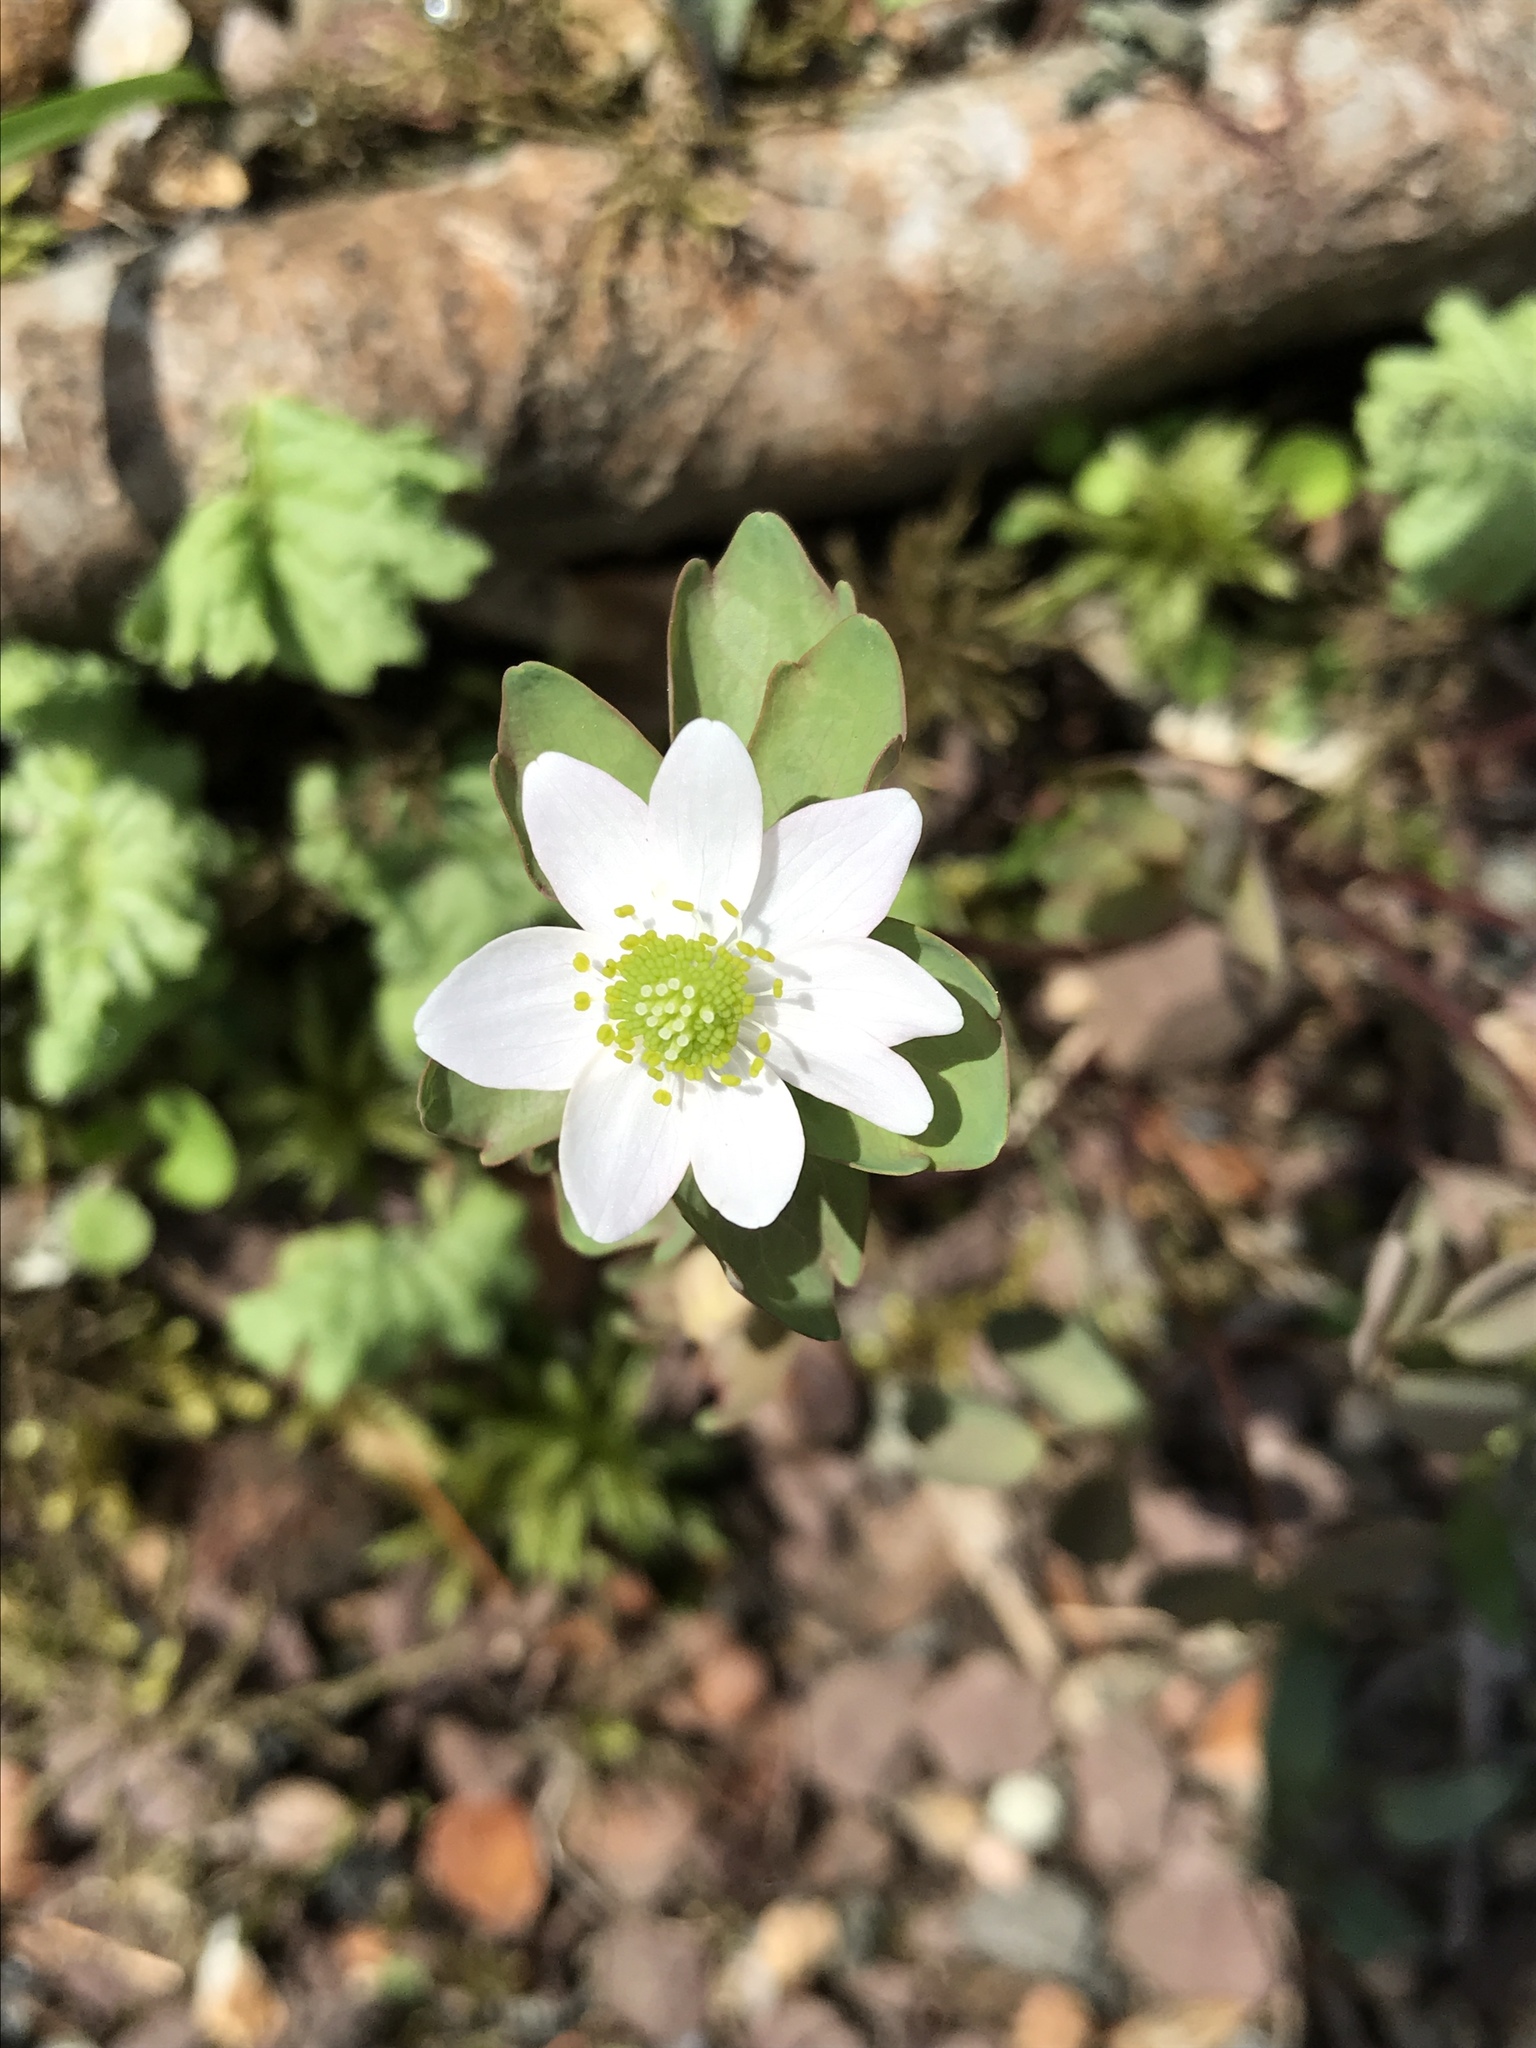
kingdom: Plantae
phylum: Tracheophyta
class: Magnoliopsida
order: Ranunculales
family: Ranunculaceae
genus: Thalictrum
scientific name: Thalictrum thalictroides
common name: Rue-anemone
